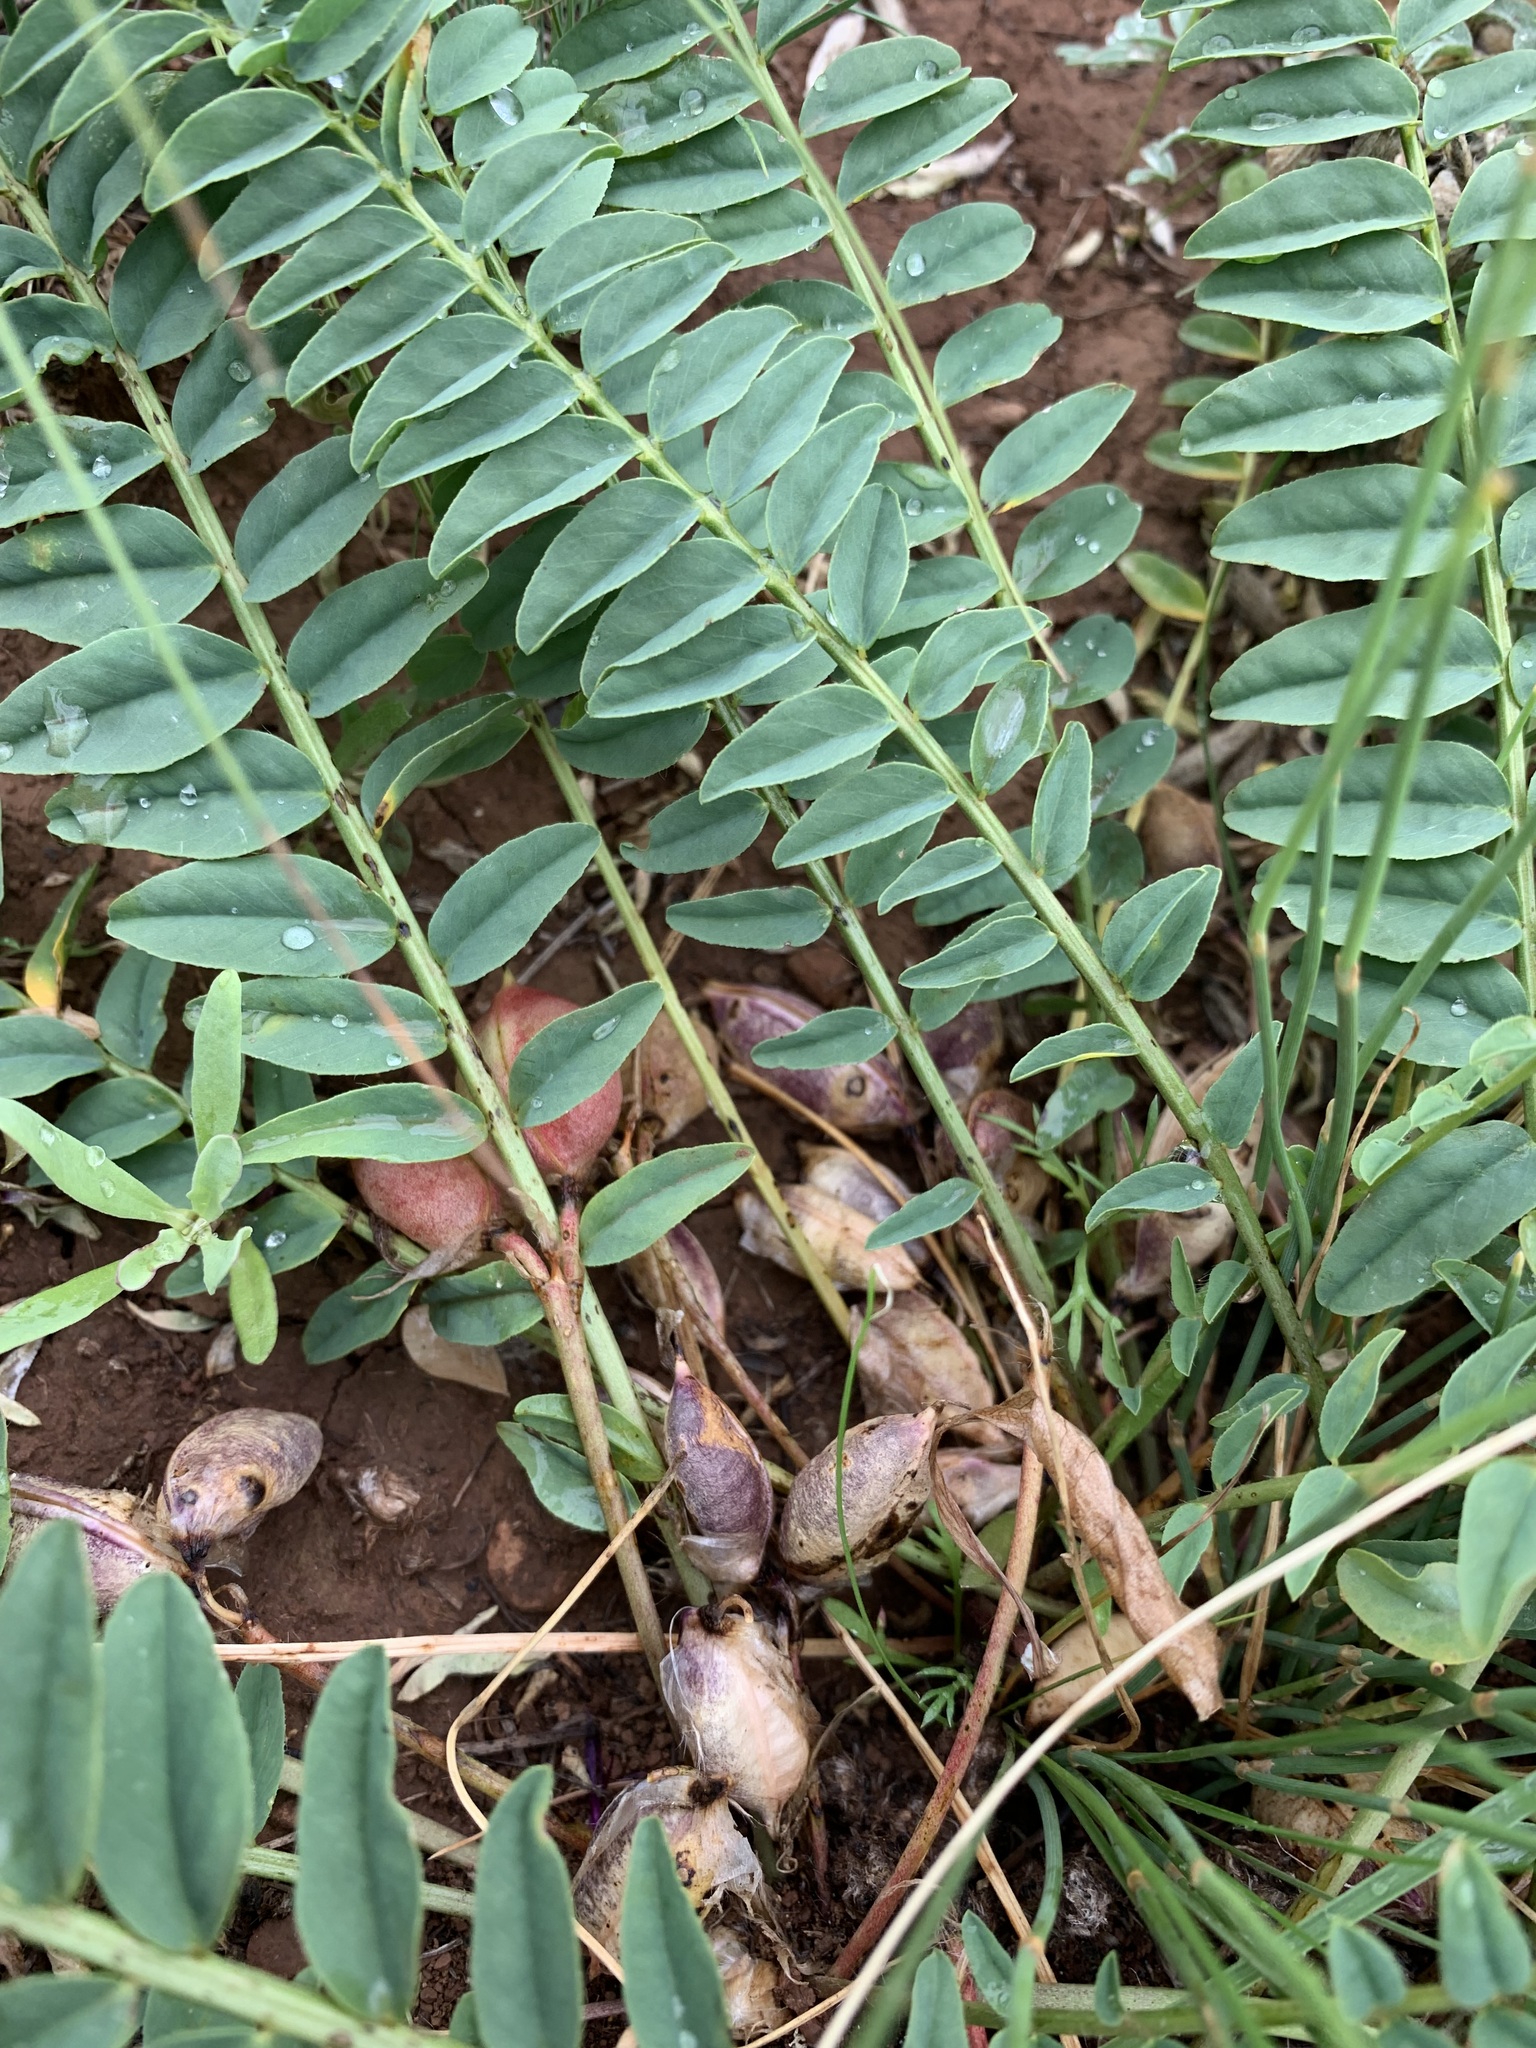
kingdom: Plantae
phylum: Tracheophyta
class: Magnoliopsida
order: Fabales
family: Fabaceae
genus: Astragalus
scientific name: Astragalus wolgensis
